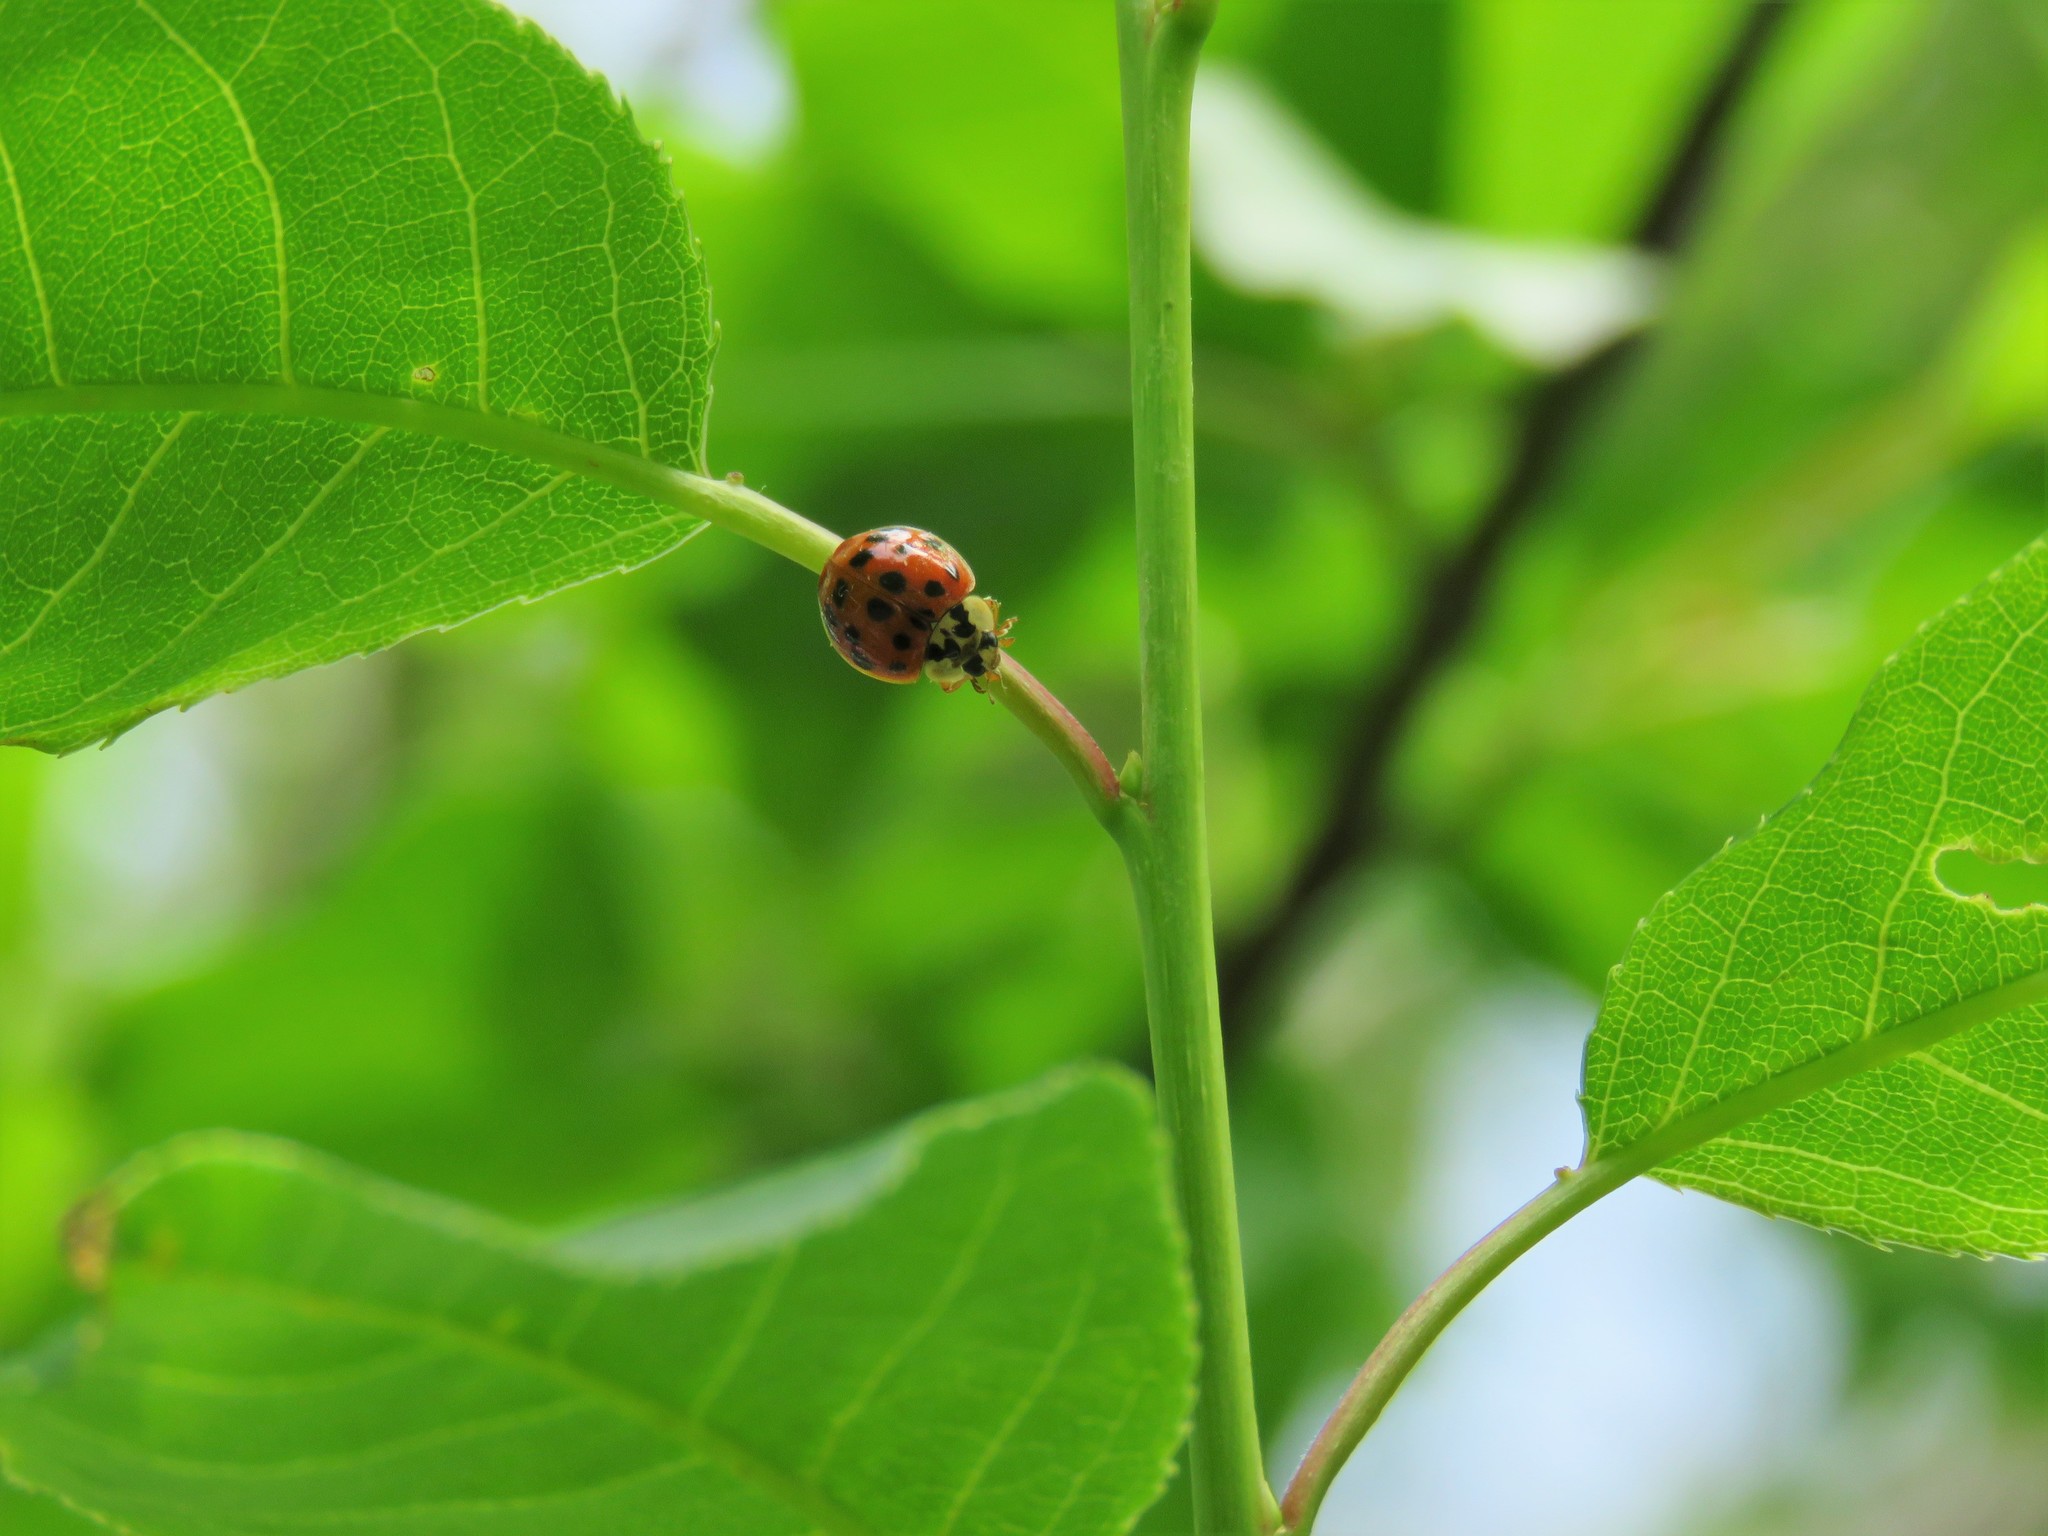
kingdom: Animalia
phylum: Arthropoda
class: Insecta
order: Coleoptera
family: Coccinellidae
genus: Harmonia
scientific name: Harmonia axyridis
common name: Harlequin ladybird
